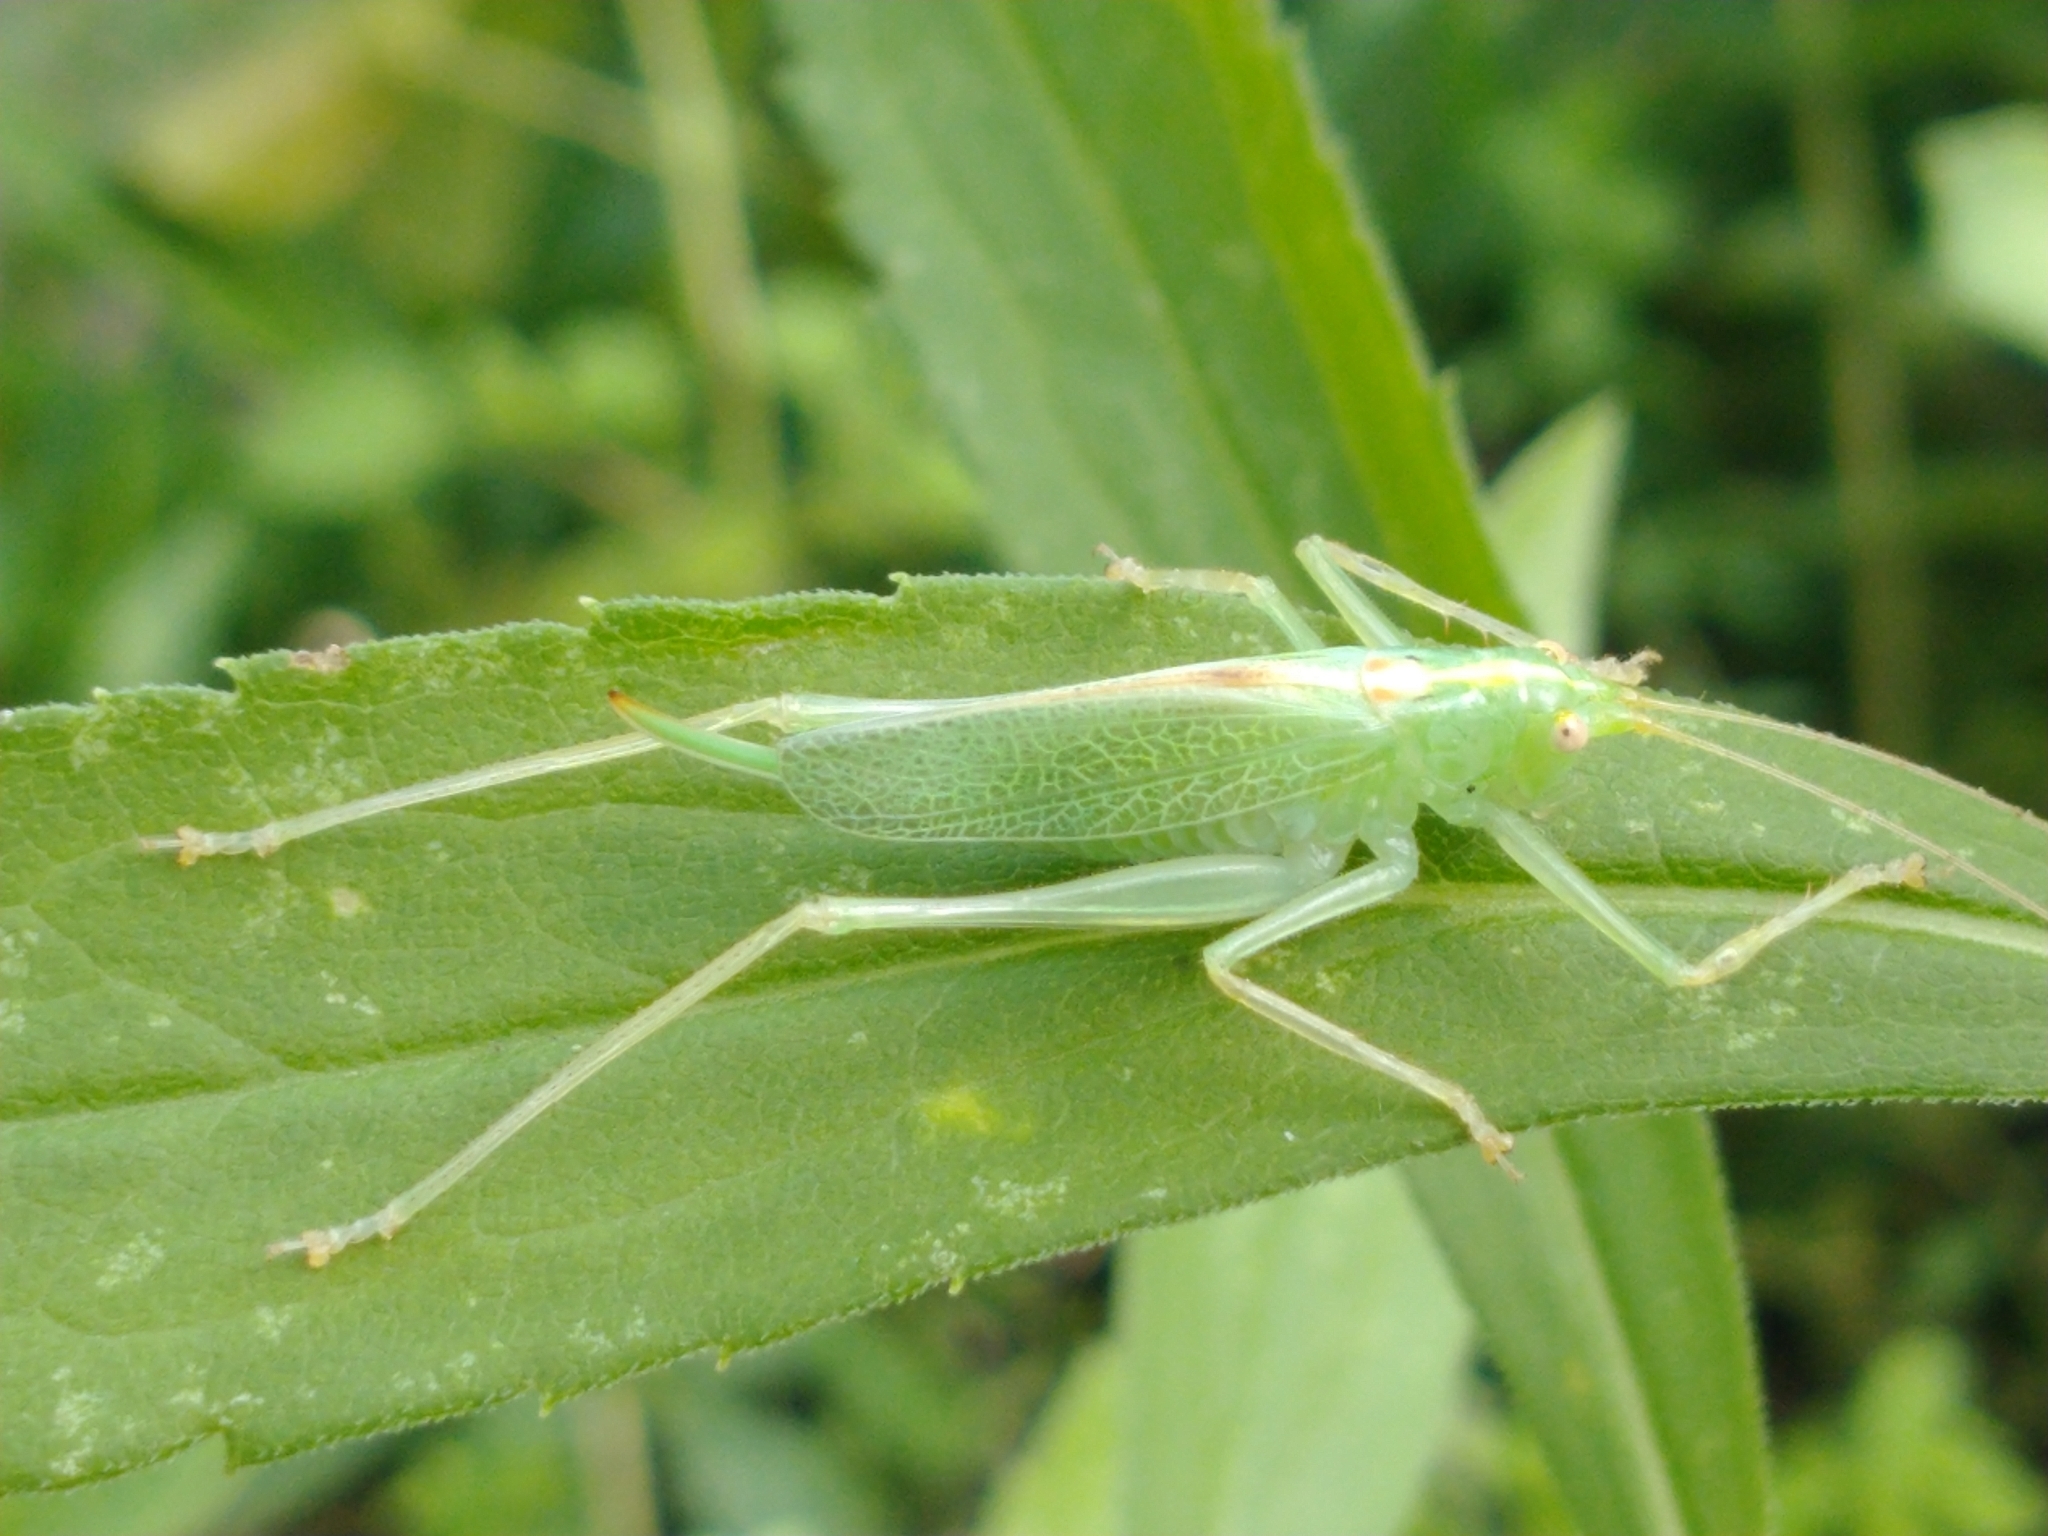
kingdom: Animalia
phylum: Arthropoda
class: Insecta
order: Orthoptera
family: Tettigoniidae
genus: Meconema
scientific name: Meconema thalassinum
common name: Oak bush-cricket
